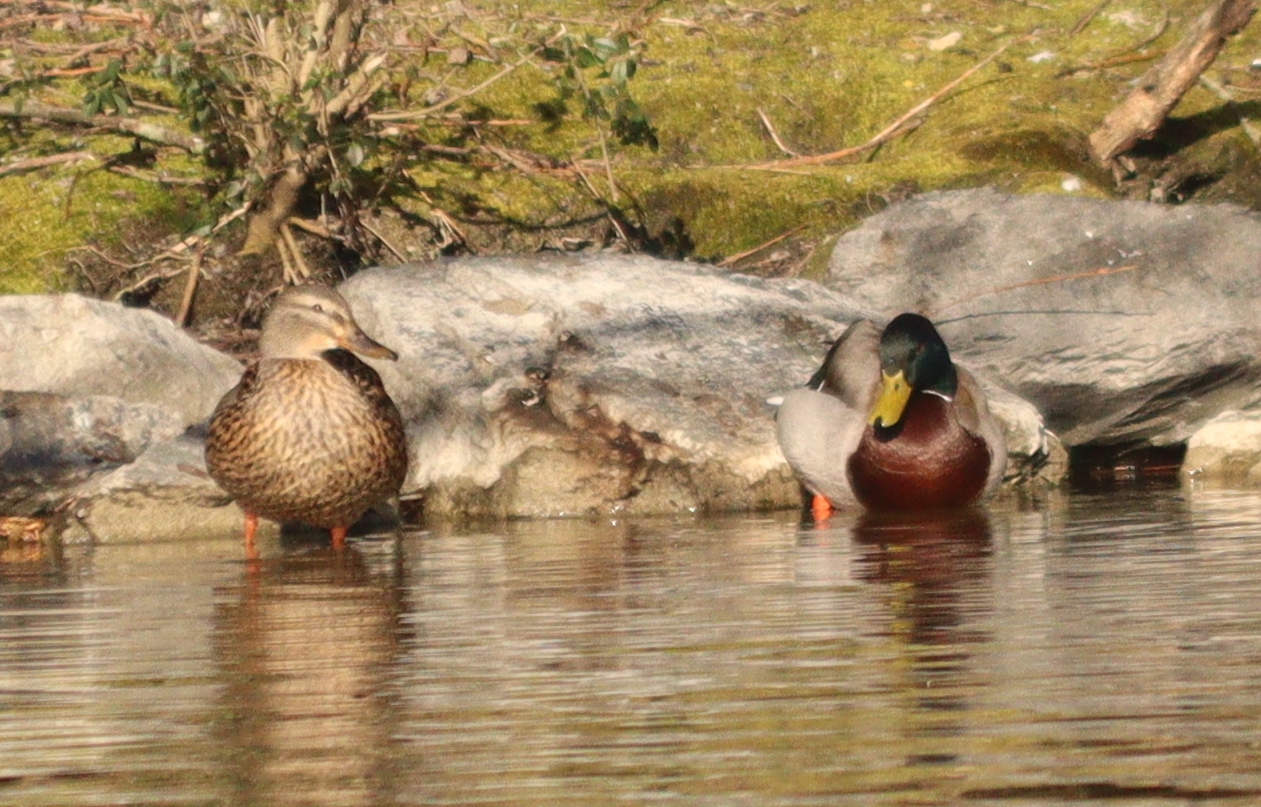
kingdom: Animalia
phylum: Chordata
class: Aves
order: Anseriformes
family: Anatidae
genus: Anas
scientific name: Anas platyrhynchos
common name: Mallard
